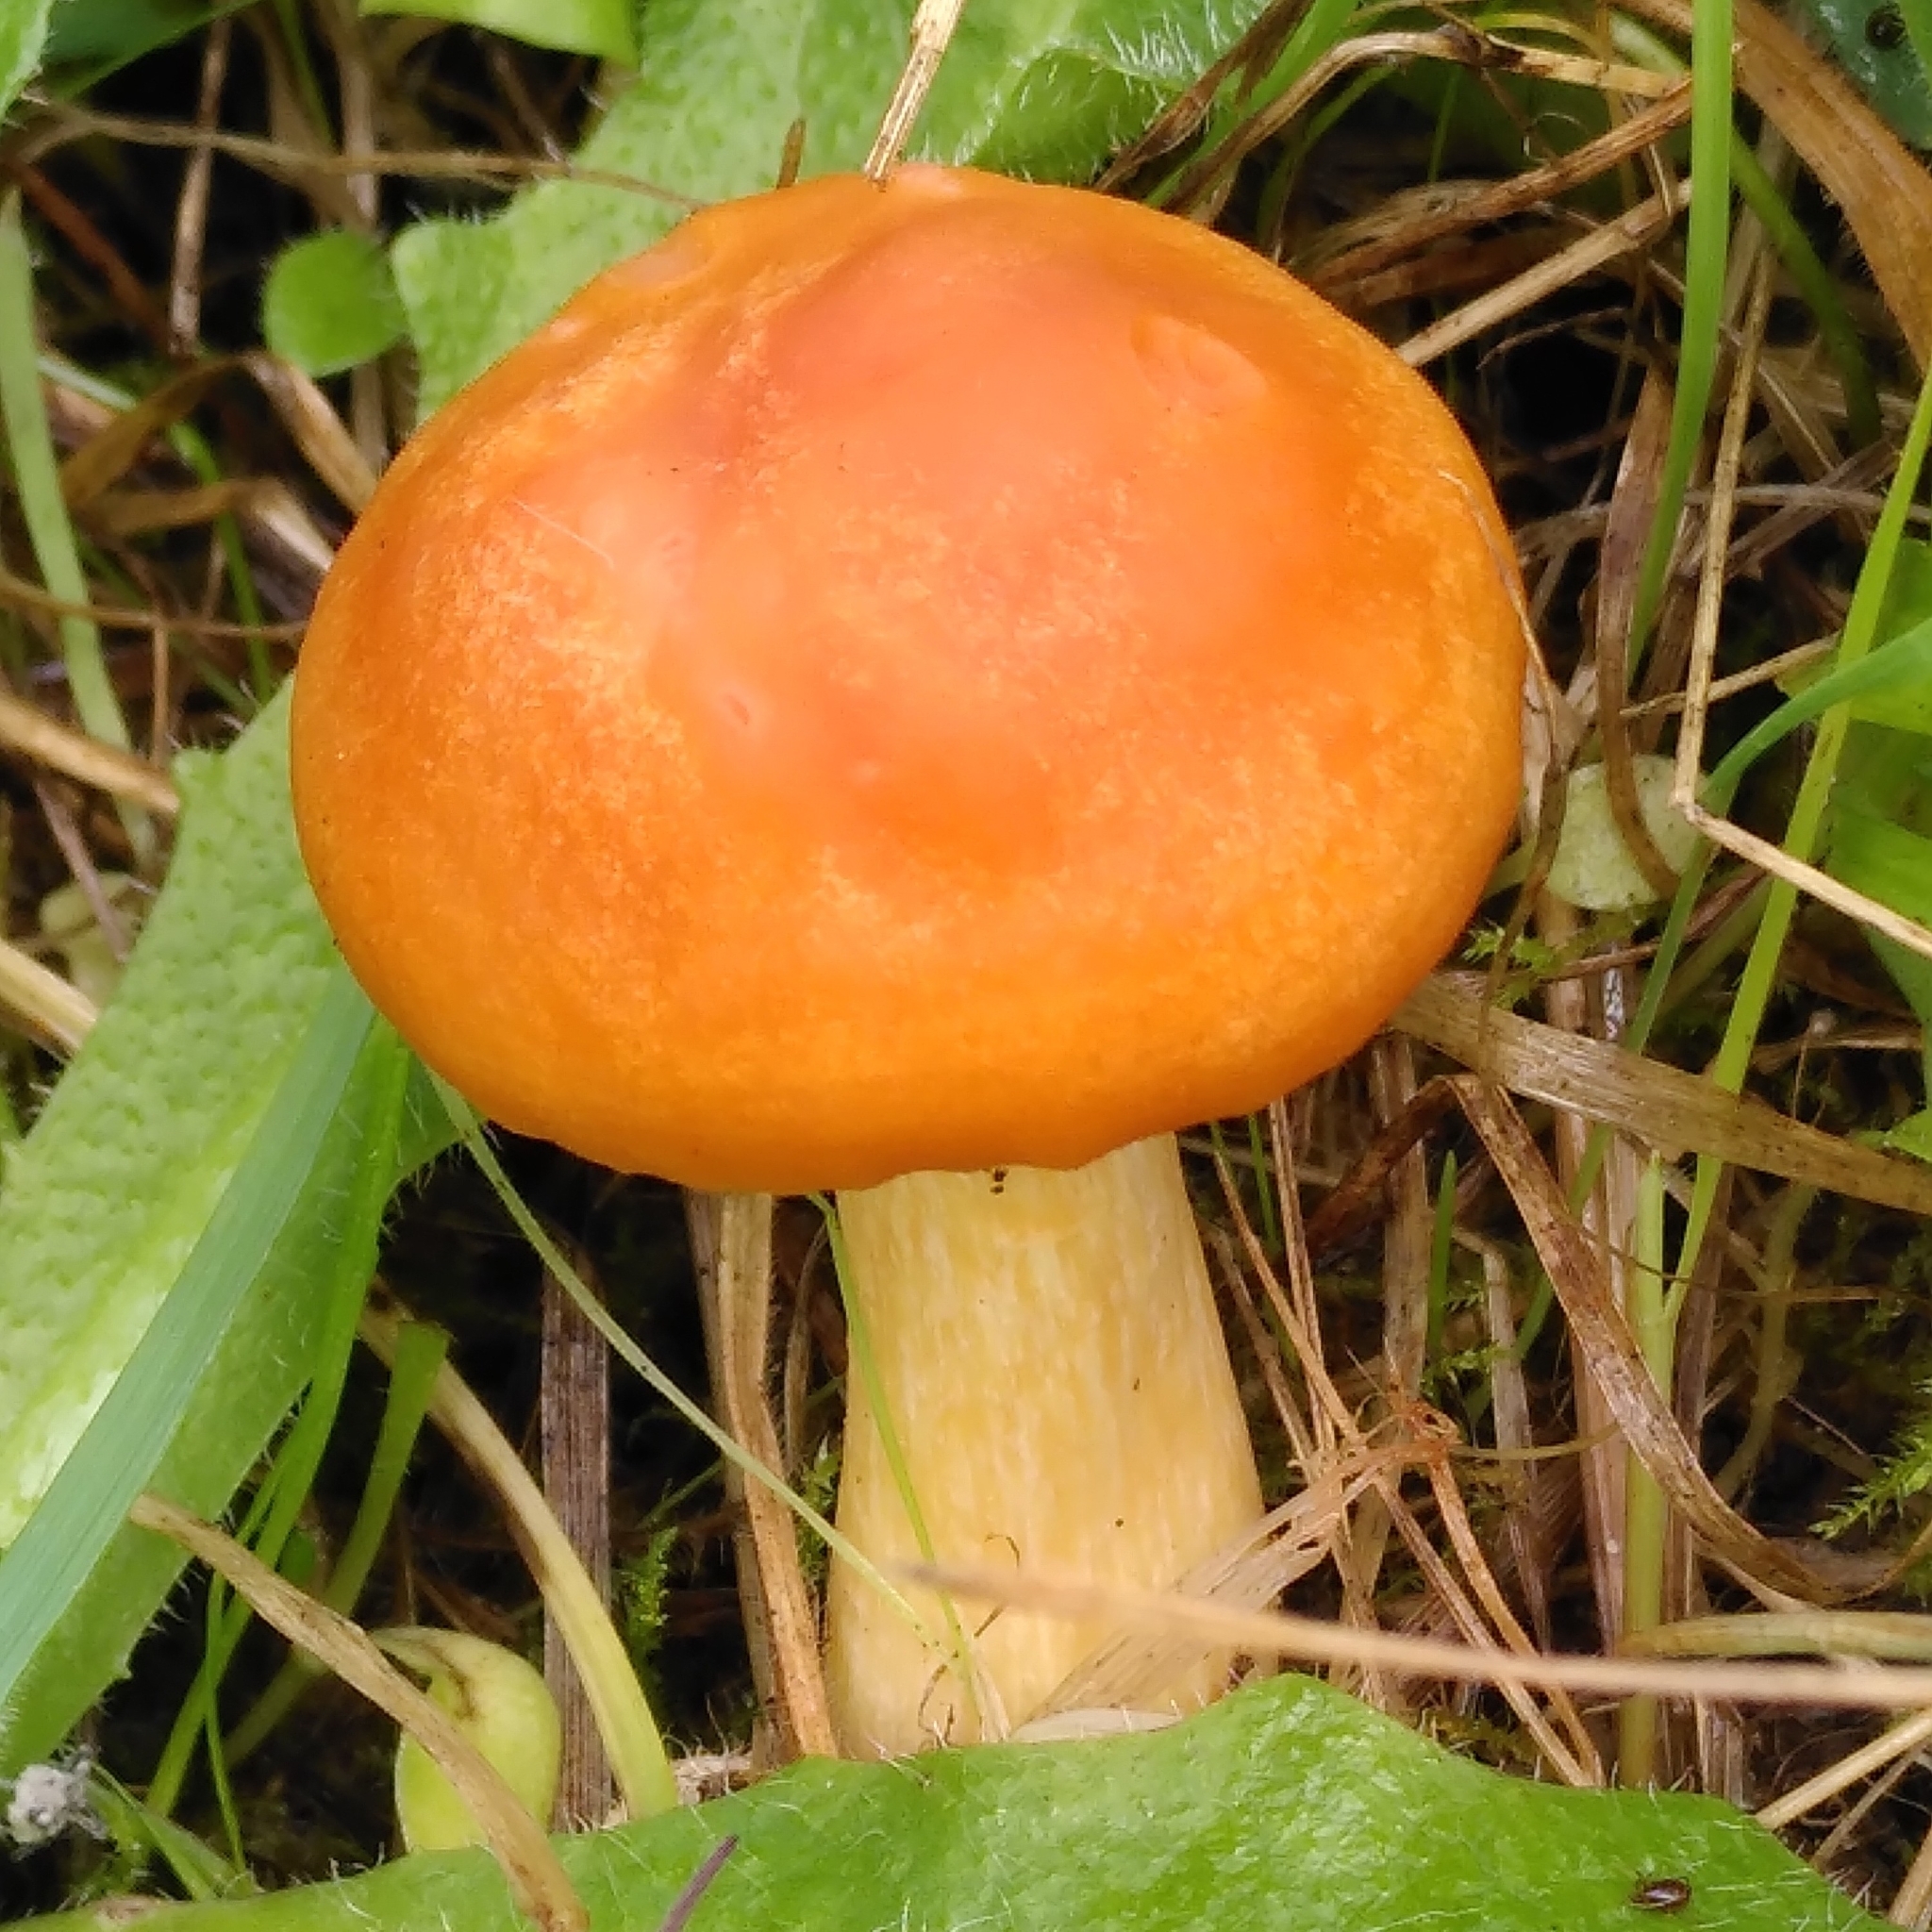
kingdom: Fungi
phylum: Basidiomycota
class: Agaricomycetes
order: Agaricales
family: Hygrophoraceae
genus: Cuphophyllus
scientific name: Cuphophyllus pratensis
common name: Meadow waxcap
